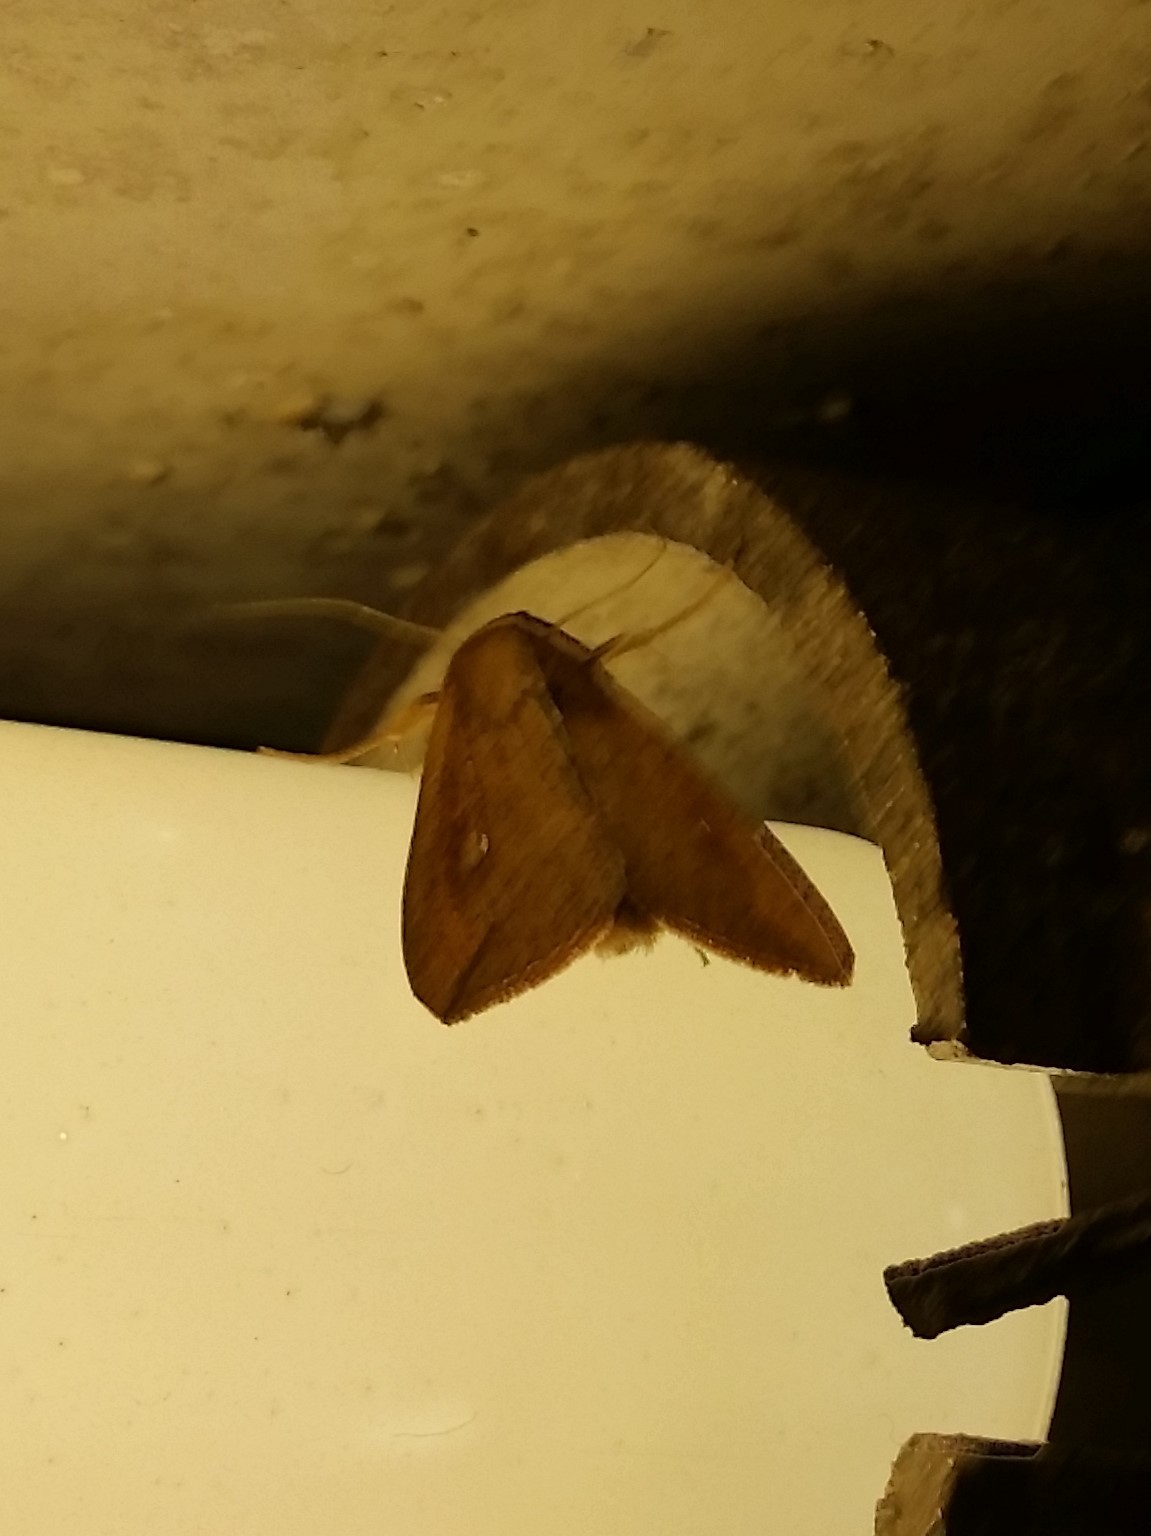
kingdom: Animalia
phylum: Arthropoda
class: Insecta
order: Lepidoptera
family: Noctuidae
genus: Mythimna
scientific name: Mythimna unipuncta
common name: White-speck
